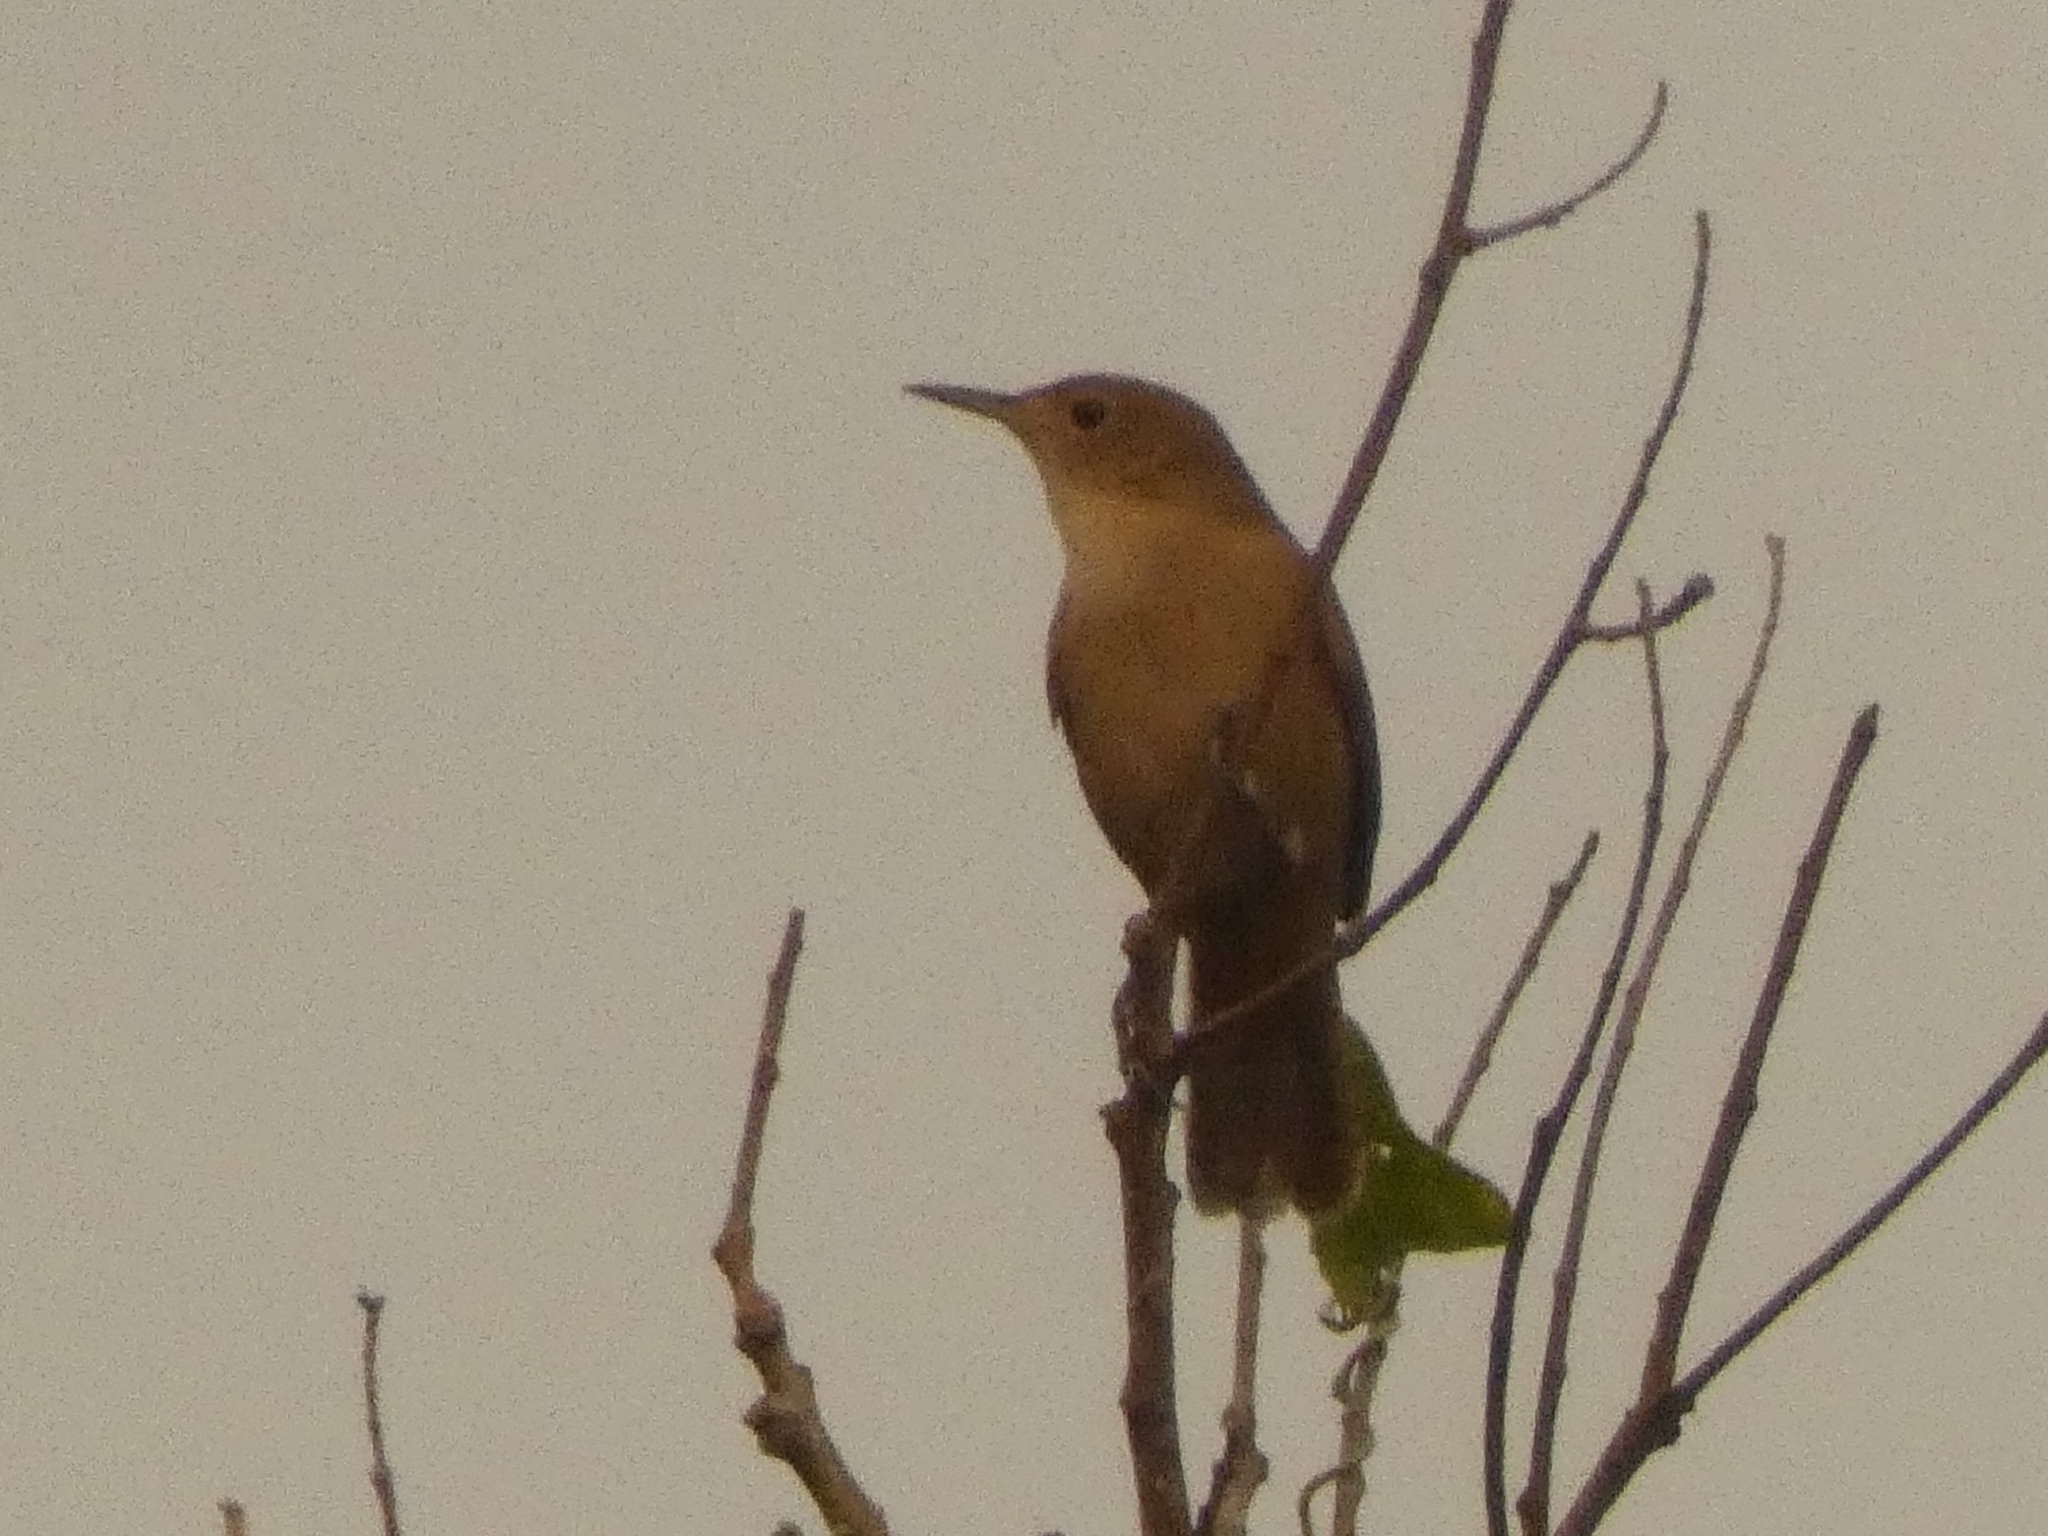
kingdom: Animalia
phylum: Chordata
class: Aves
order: Passeriformes
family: Troglodytidae
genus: Troglodytes
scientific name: Troglodytes aedon
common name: House wren
